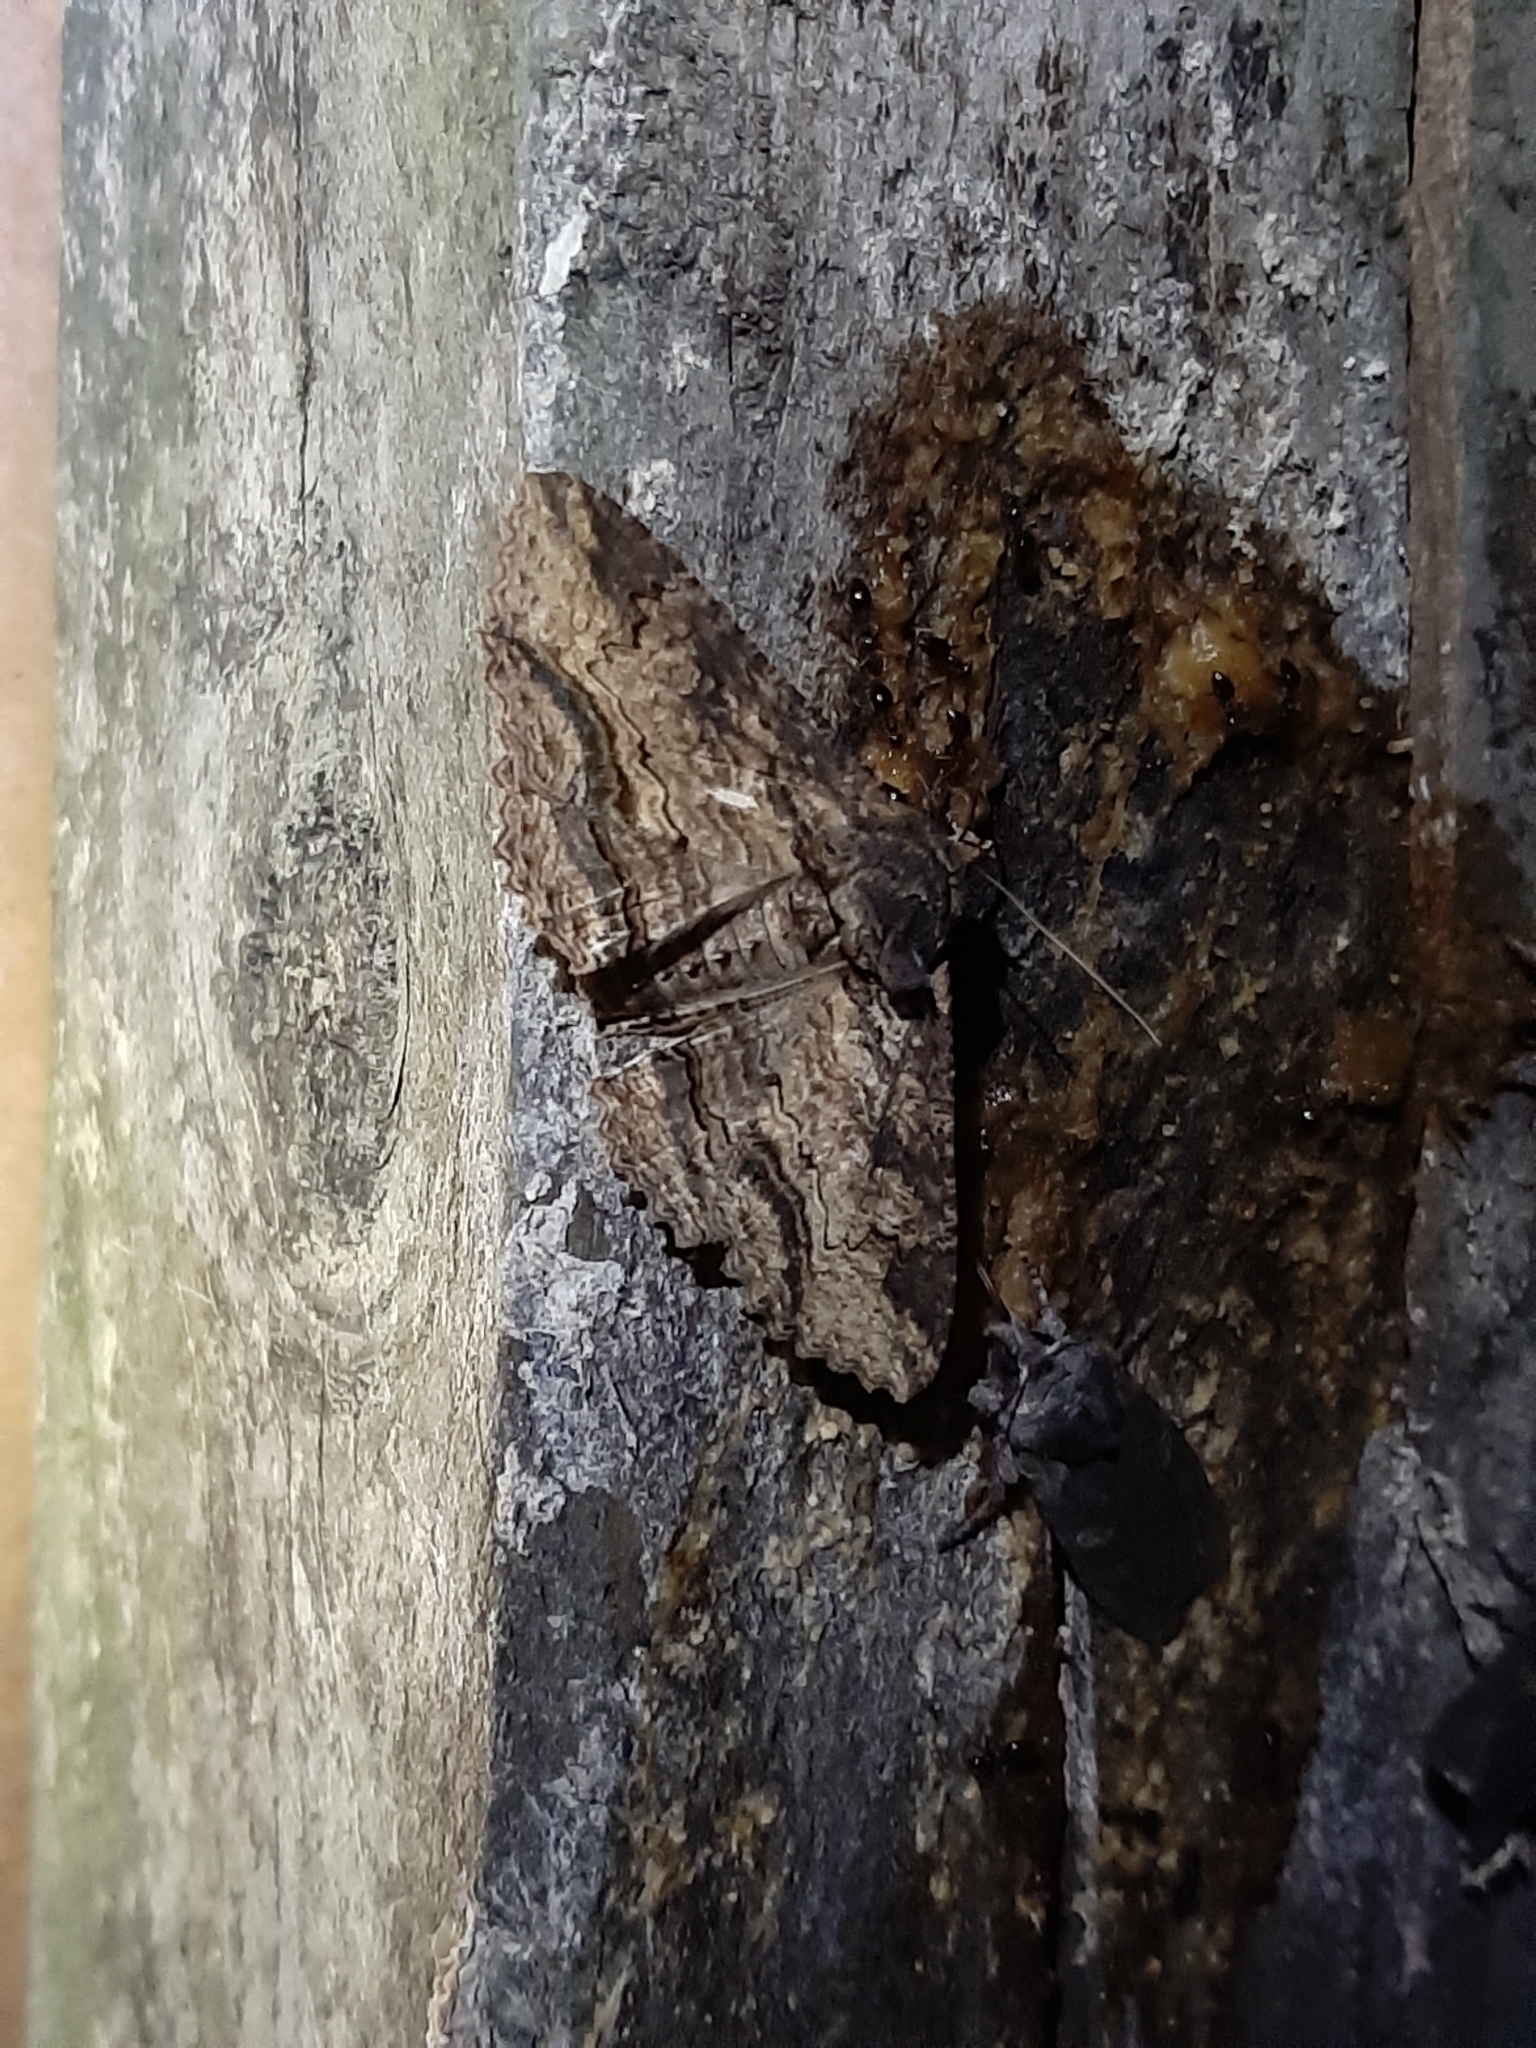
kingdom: Animalia
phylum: Arthropoda
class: Insecta
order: Lepidoptera
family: Erebidae
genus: Zale
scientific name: Zale lunata
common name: Lunate zale moth
